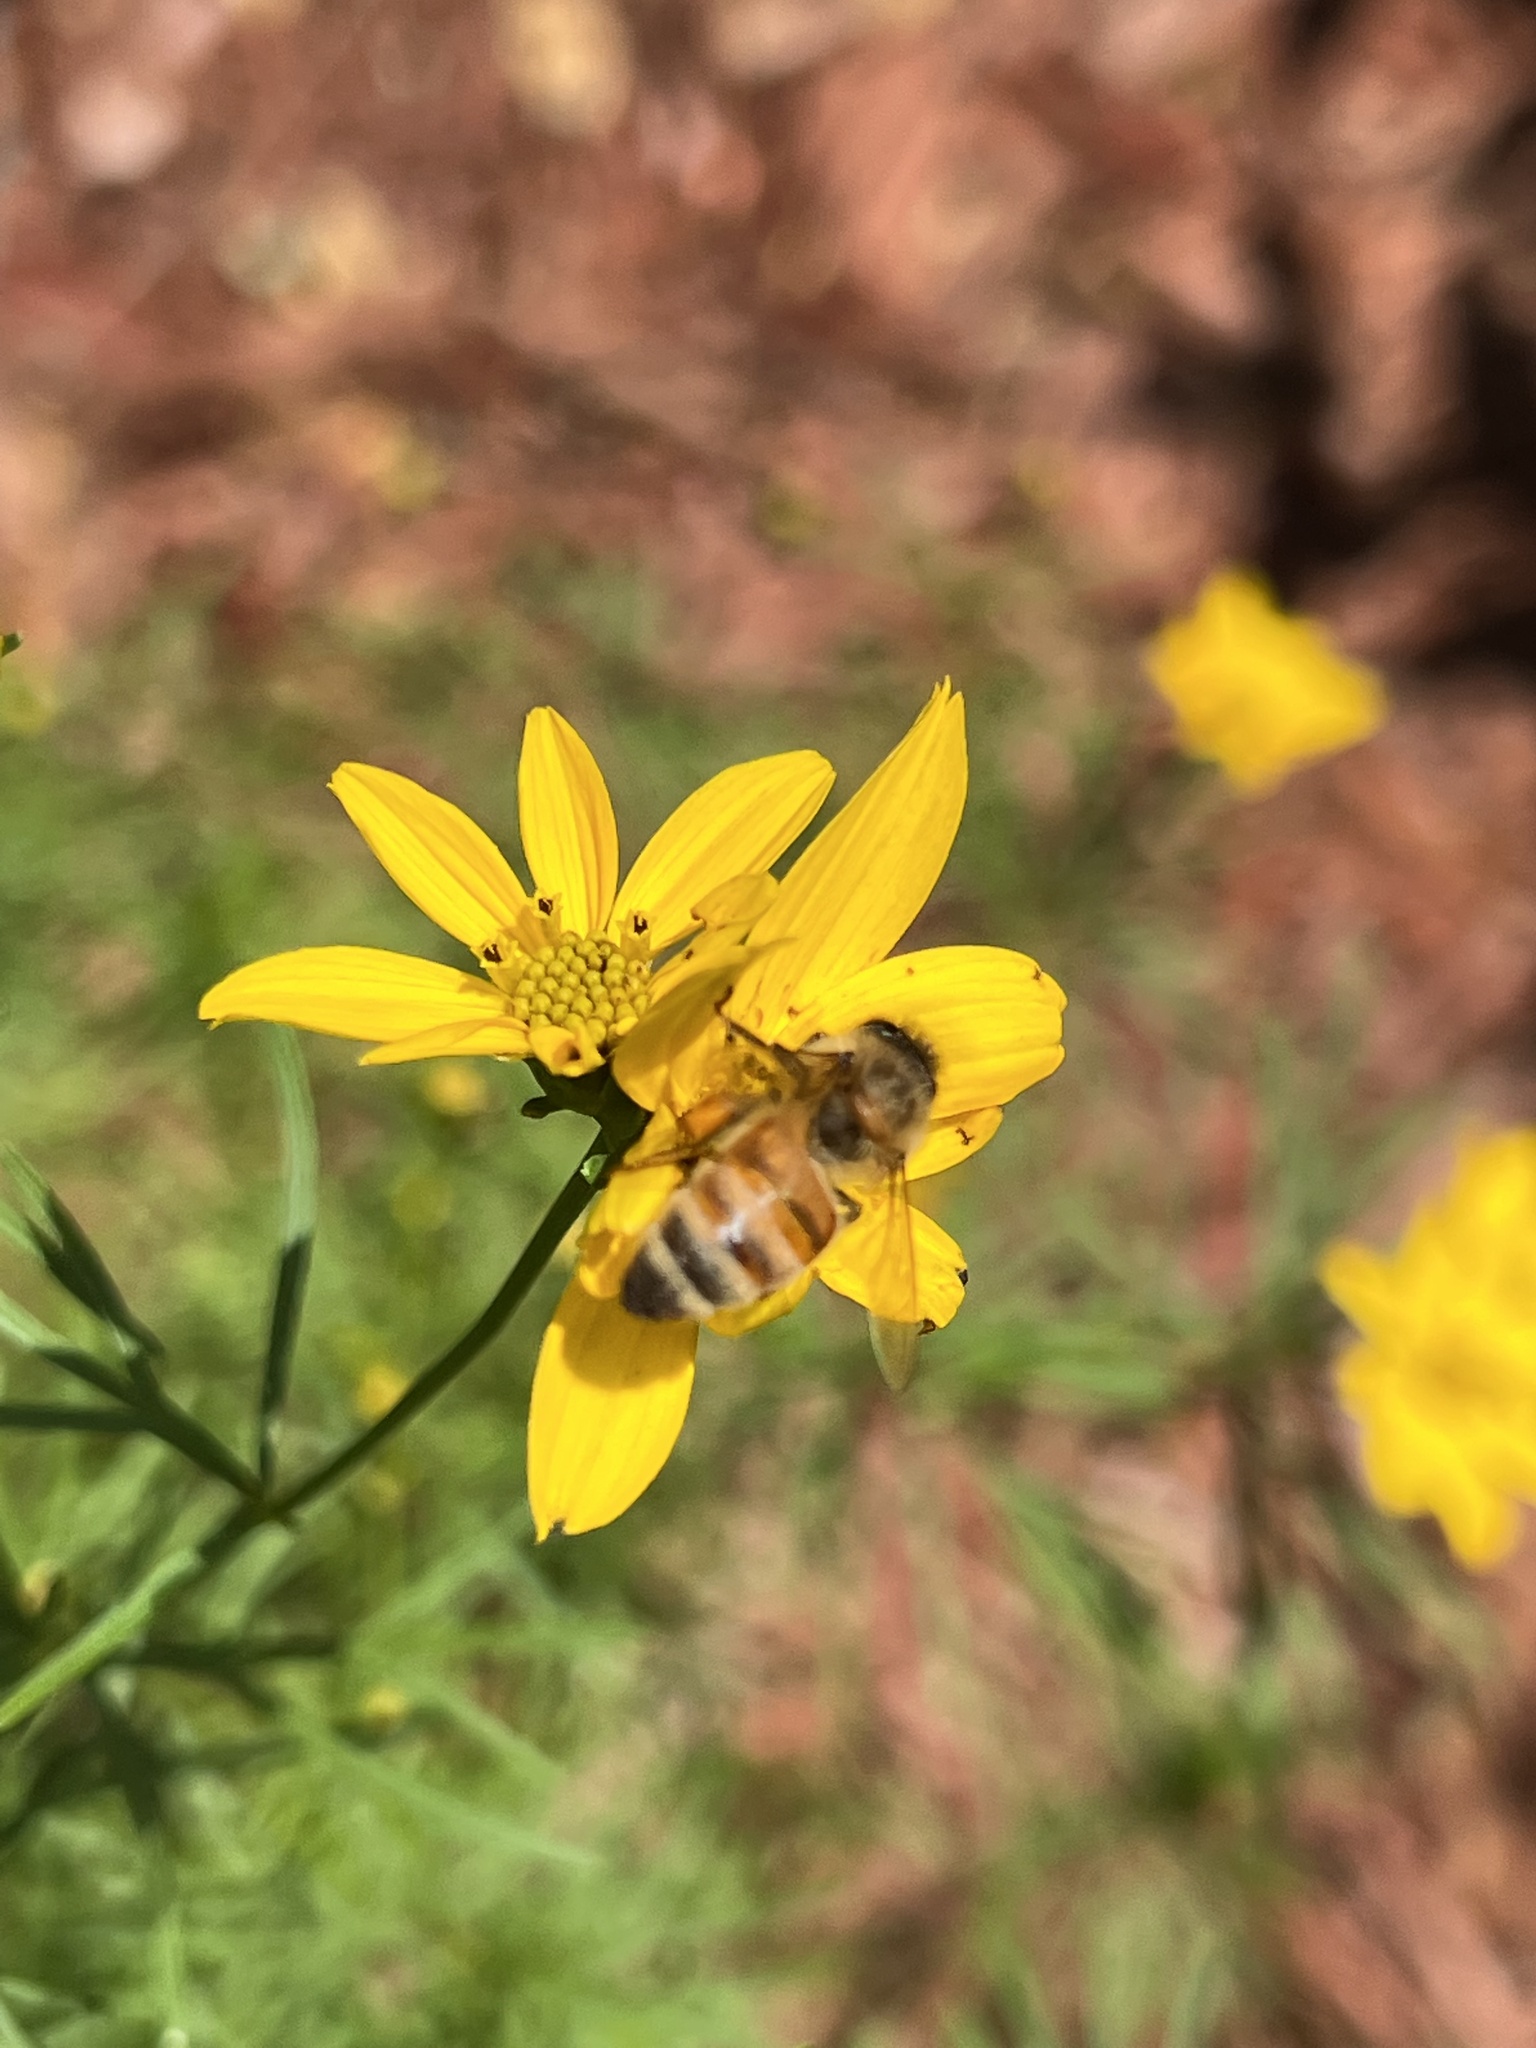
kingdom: Animalia
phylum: Arthropoda
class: Insecta
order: Hymenoptera
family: Apidae
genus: Apis
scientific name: Apis mellifera
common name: Honey bee
